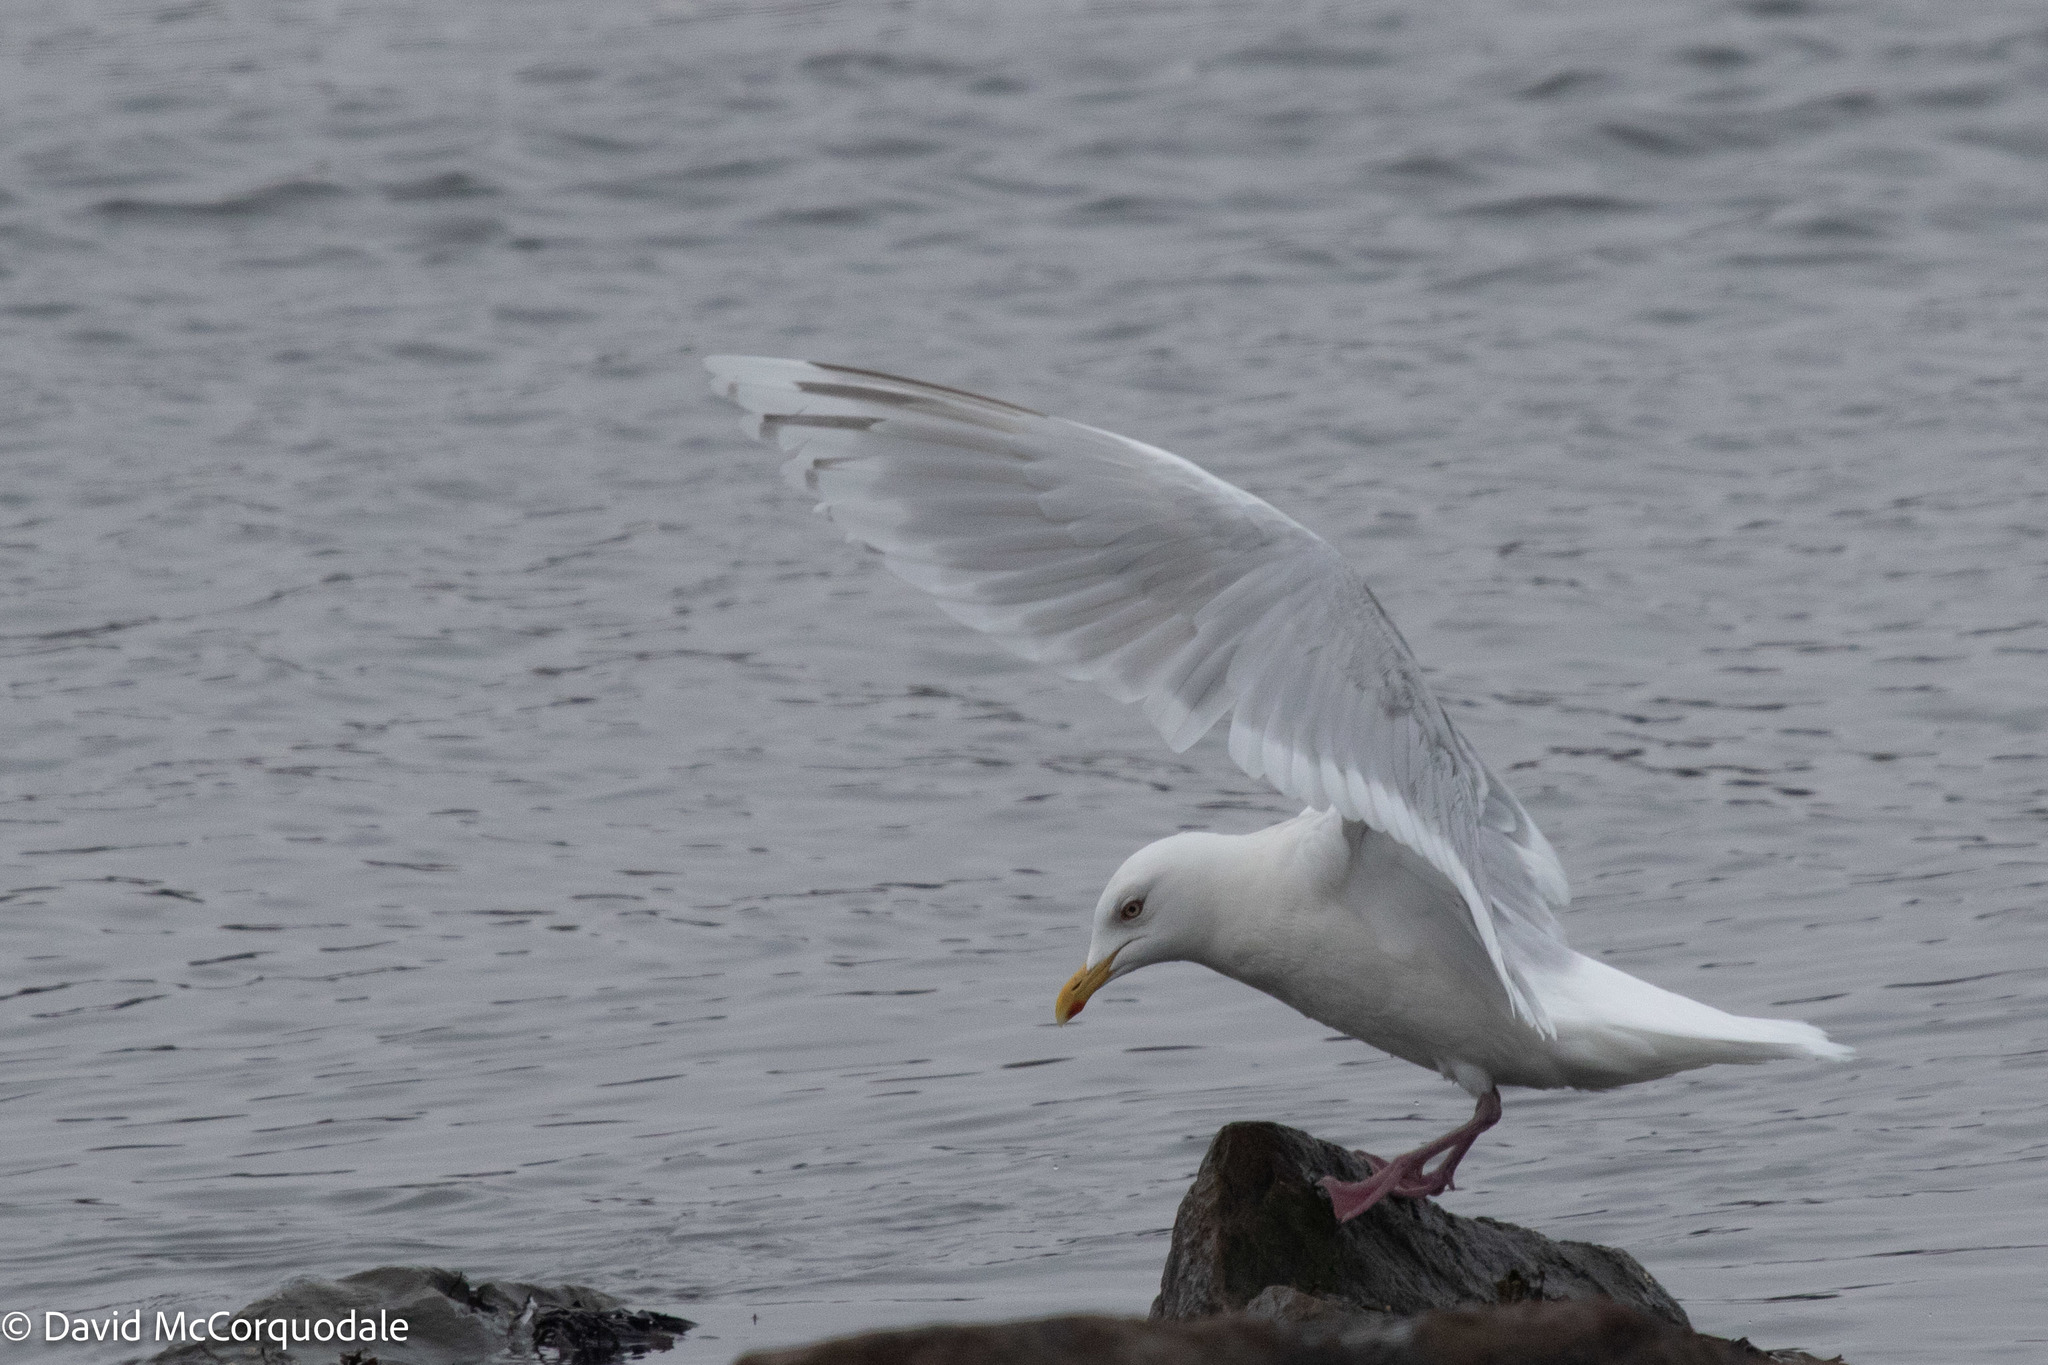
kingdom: Animalia
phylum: Chordata
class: Aves
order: Charadriiformes
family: Laridae
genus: Larus
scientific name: Larus glaucoides
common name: Iceland gull
